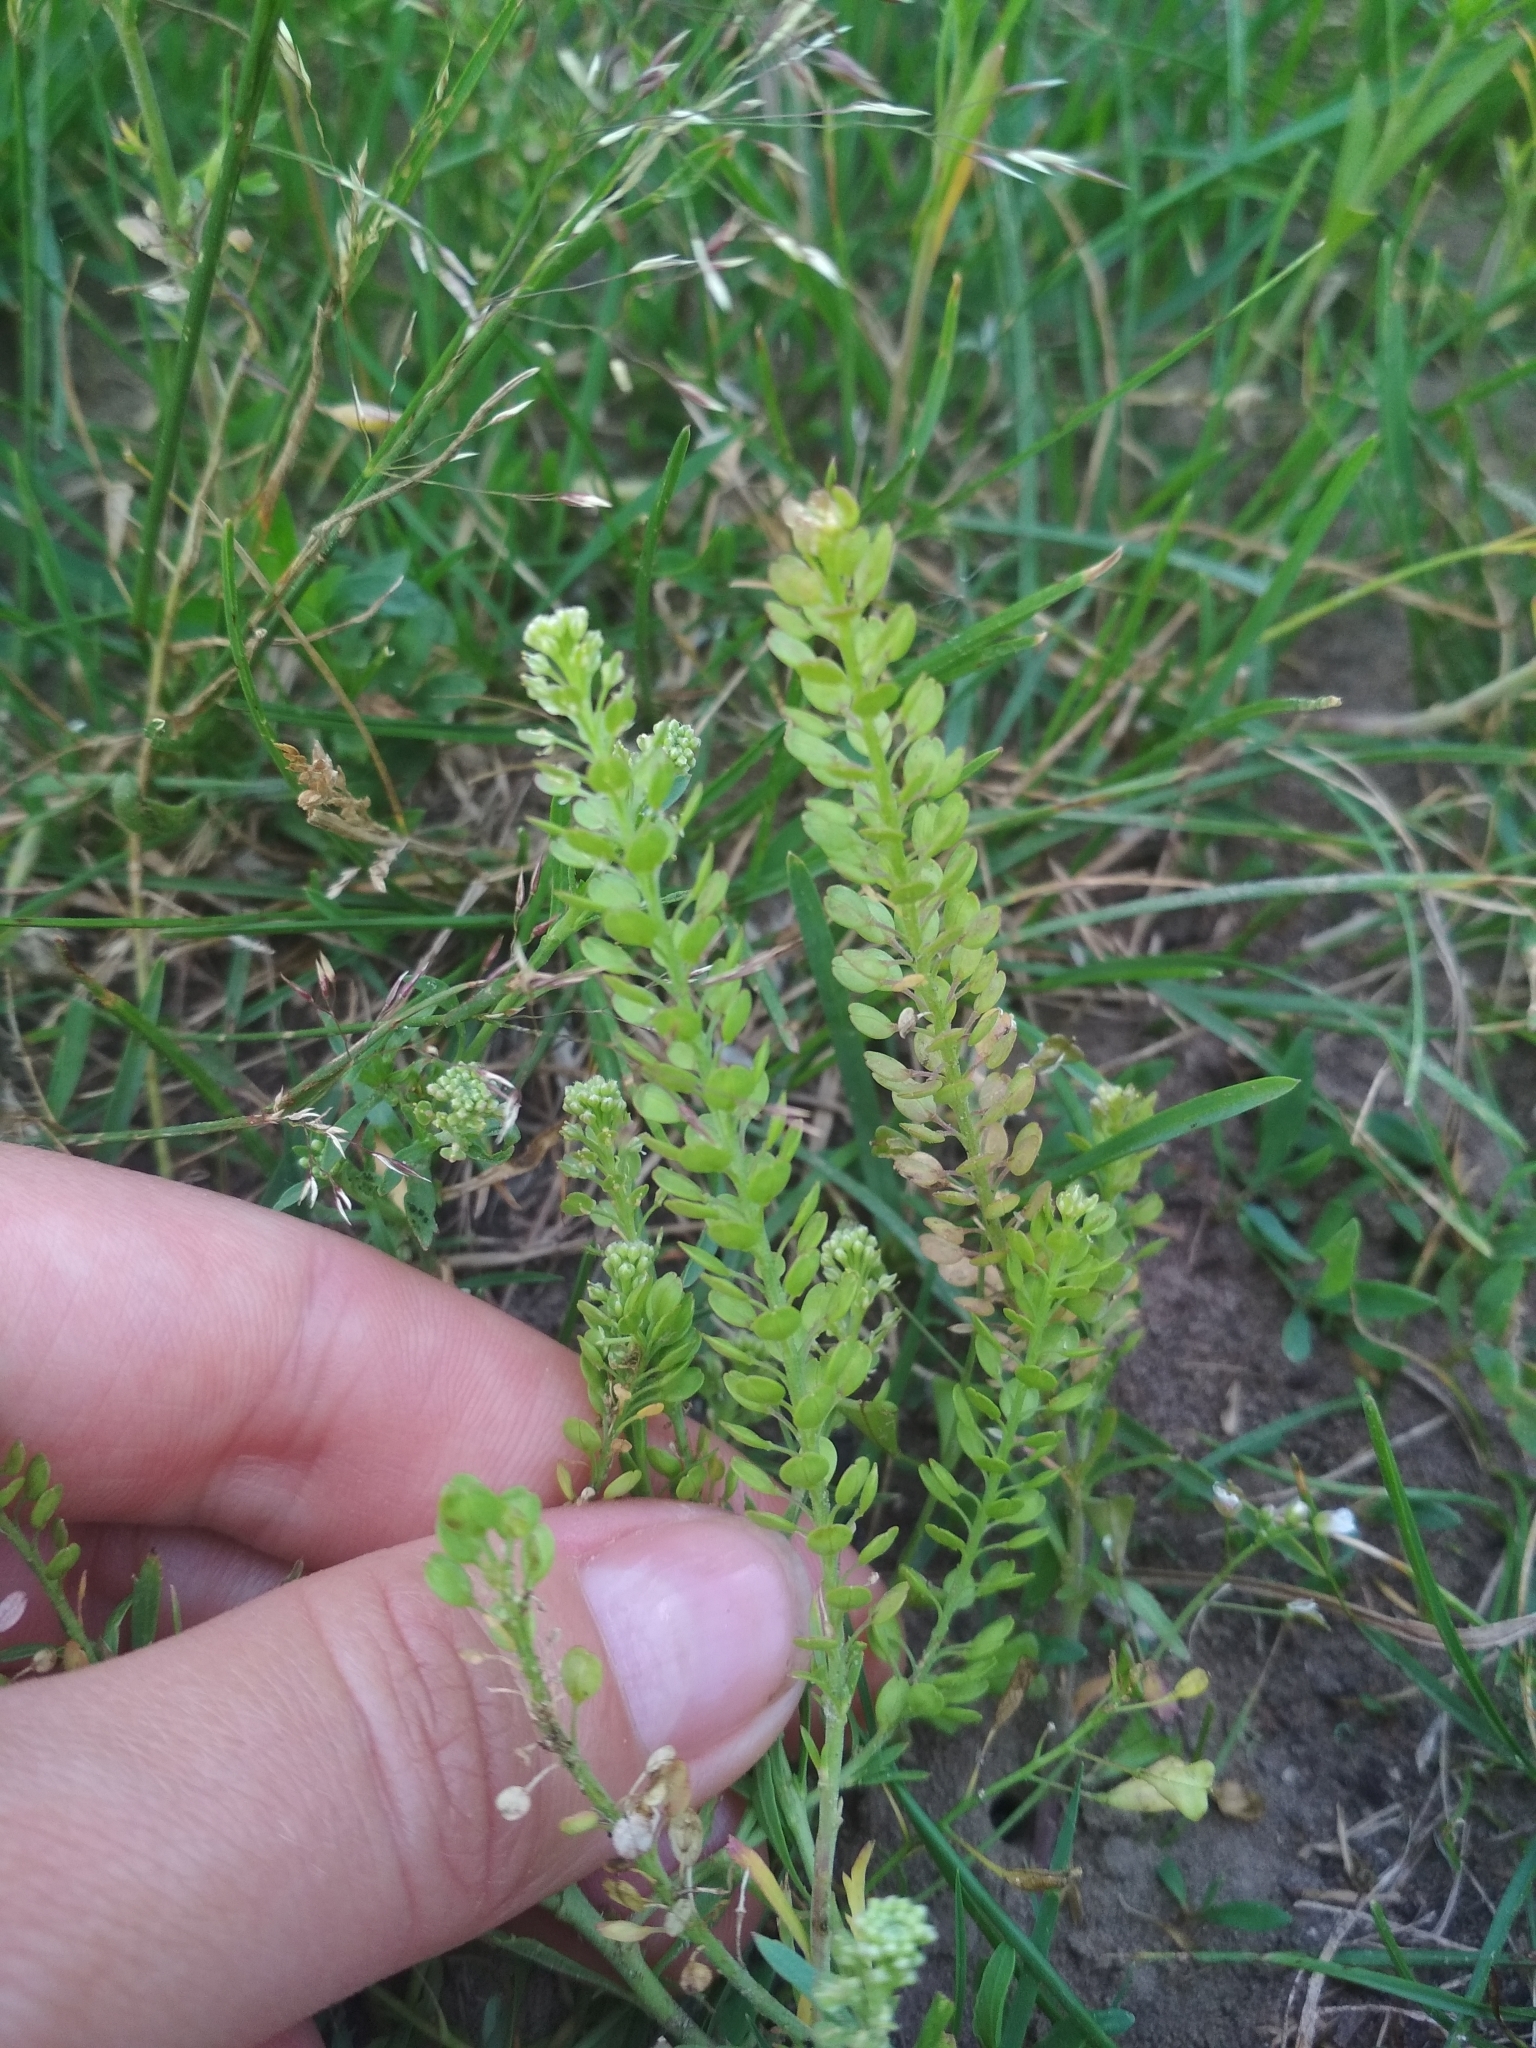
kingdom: Plantae
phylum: Tracheophyta
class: Magnoliopsida
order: Brassicales
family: Brassicaceae
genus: Lepidium
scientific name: Lepidium densiflorum
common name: Miner's pepperwort
